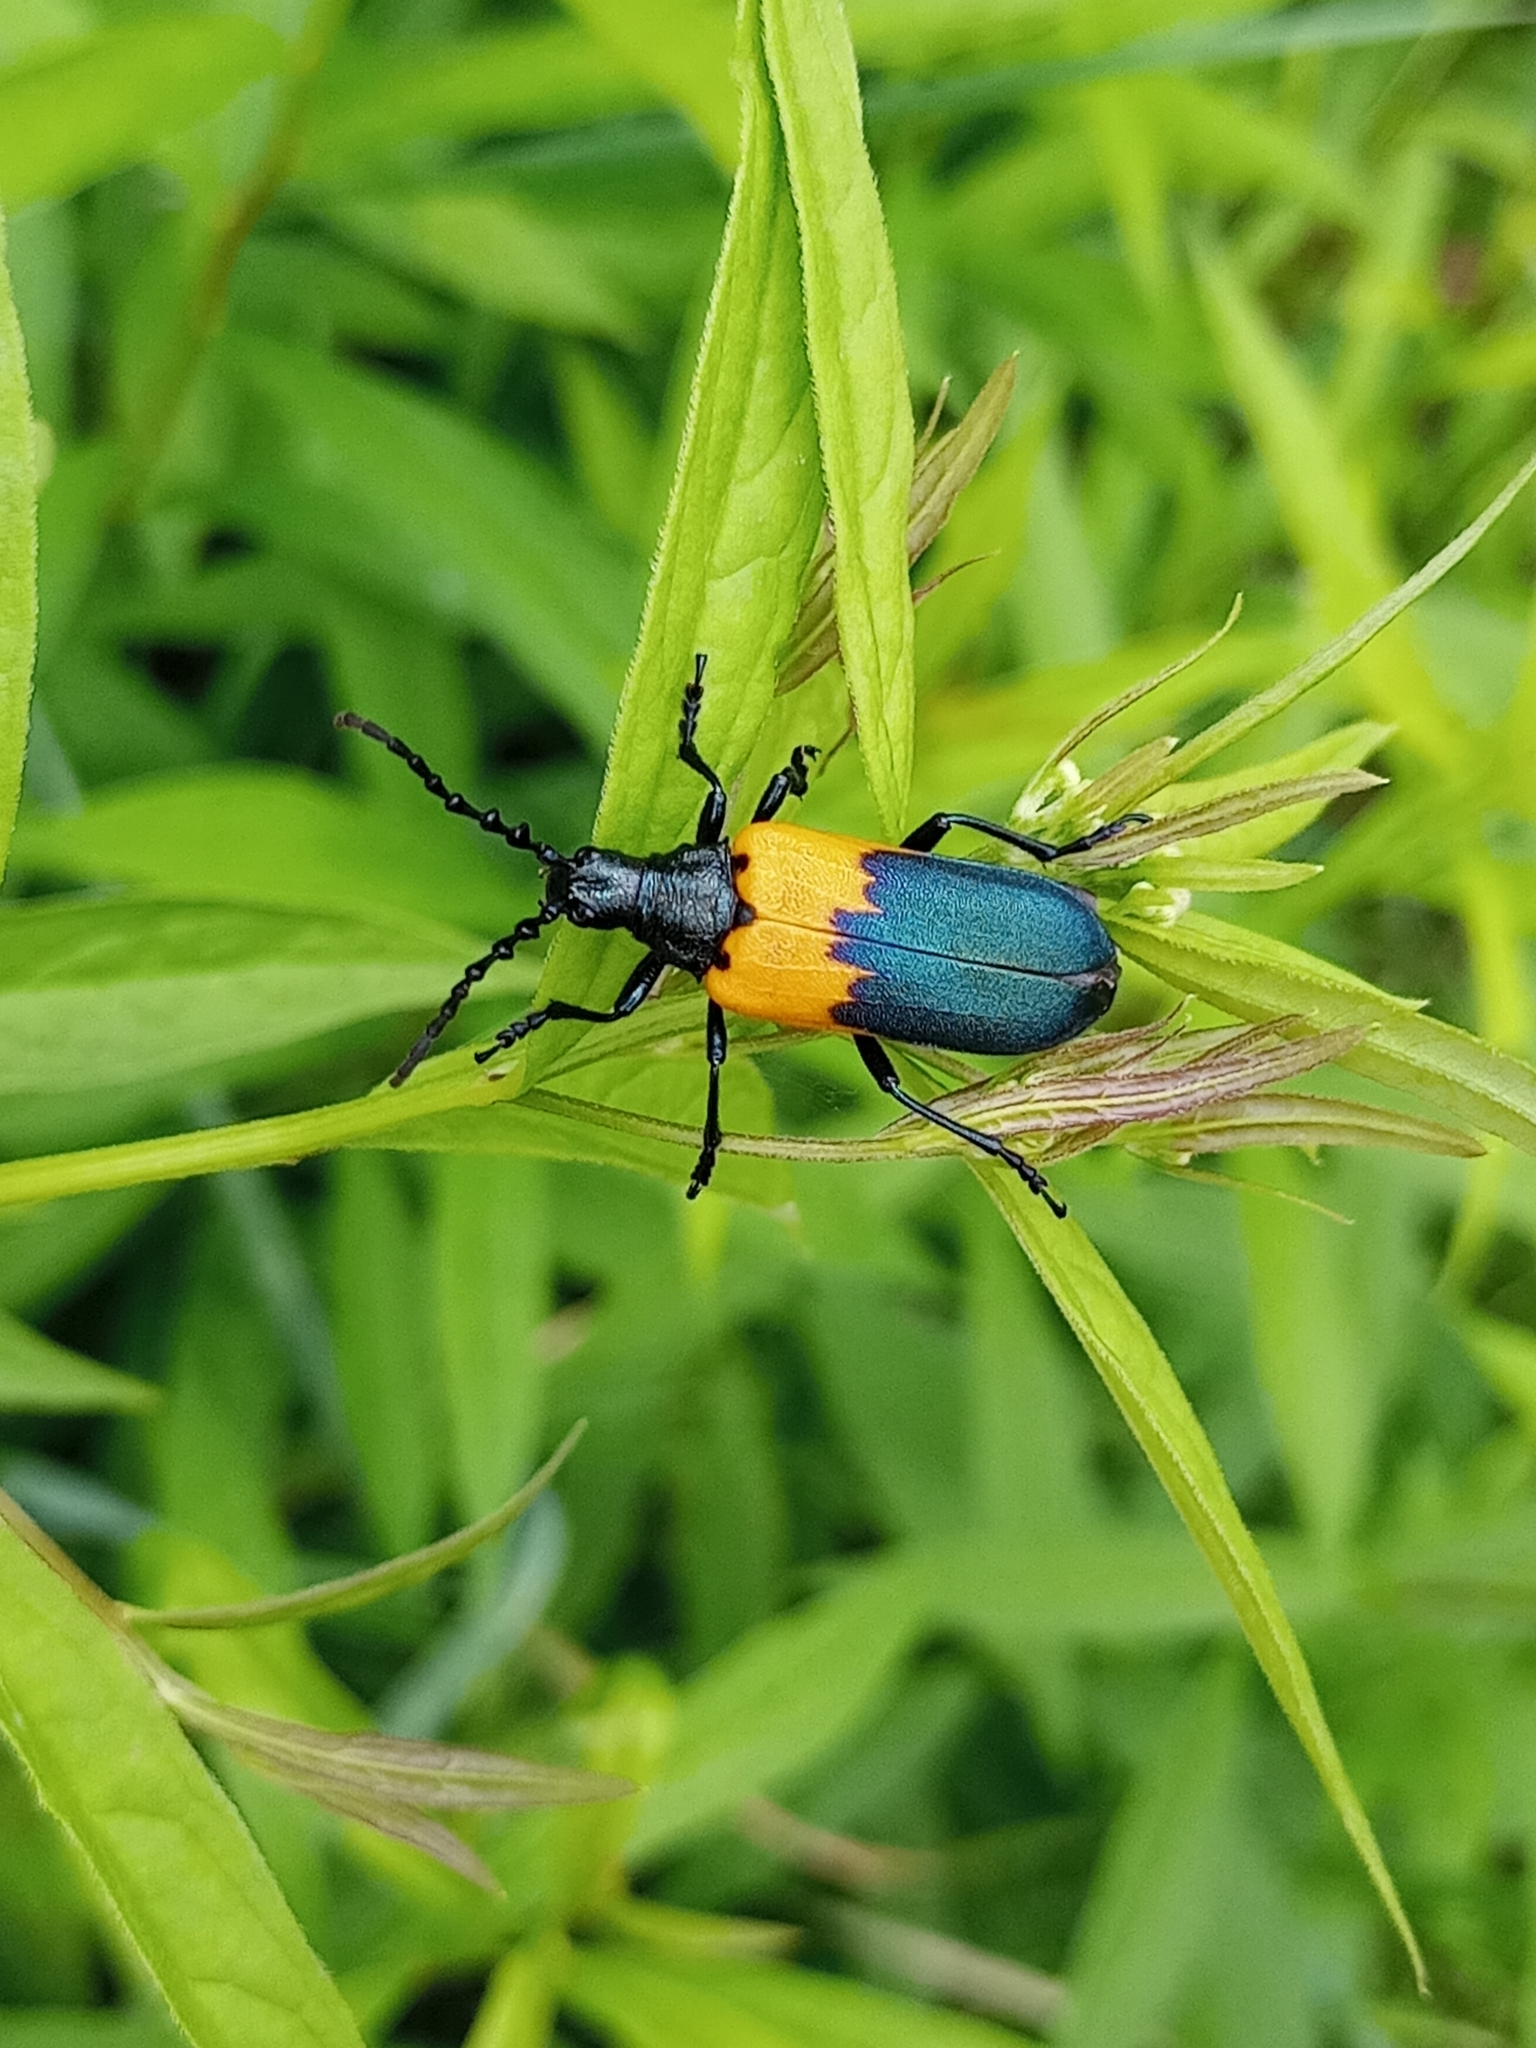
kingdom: Animalia
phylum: Arthropoda
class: Insecta
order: Coleoptera
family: Cerambycidae
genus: Desmocerus
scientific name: Desmocerus palliatus
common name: Eastern elderberry borer
